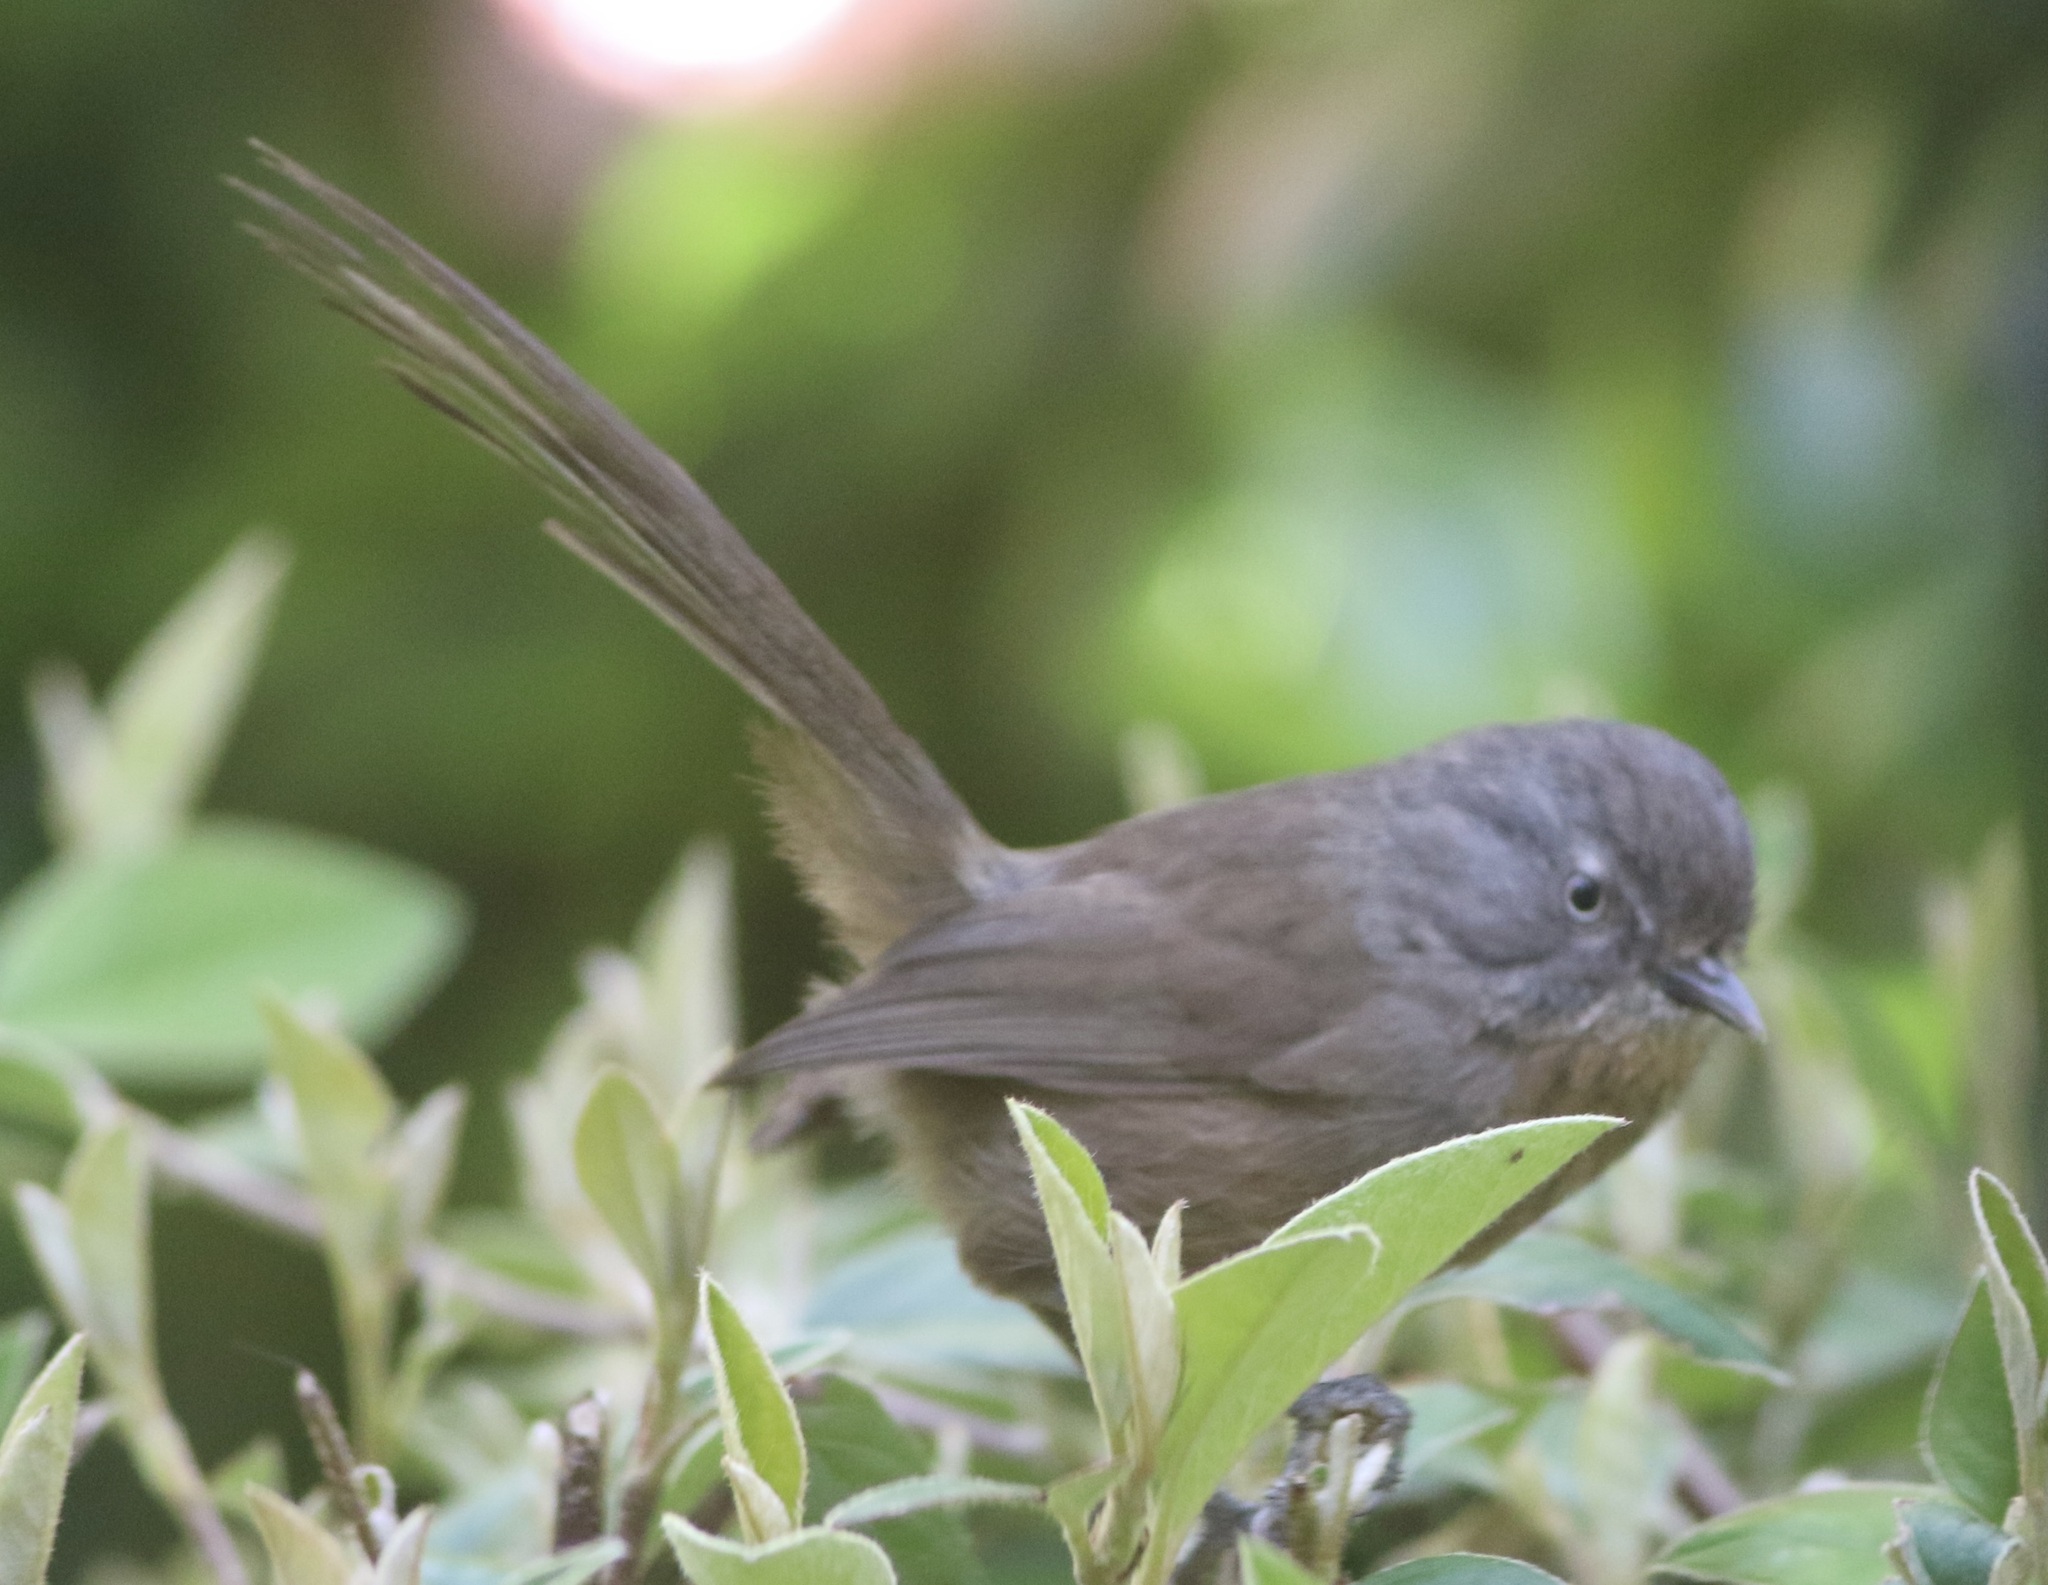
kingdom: Animalia
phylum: Chordata
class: Aves
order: Passeriformes
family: Sylviidae
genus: Chamaea
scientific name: Chamaea fasciata
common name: Wrentit
